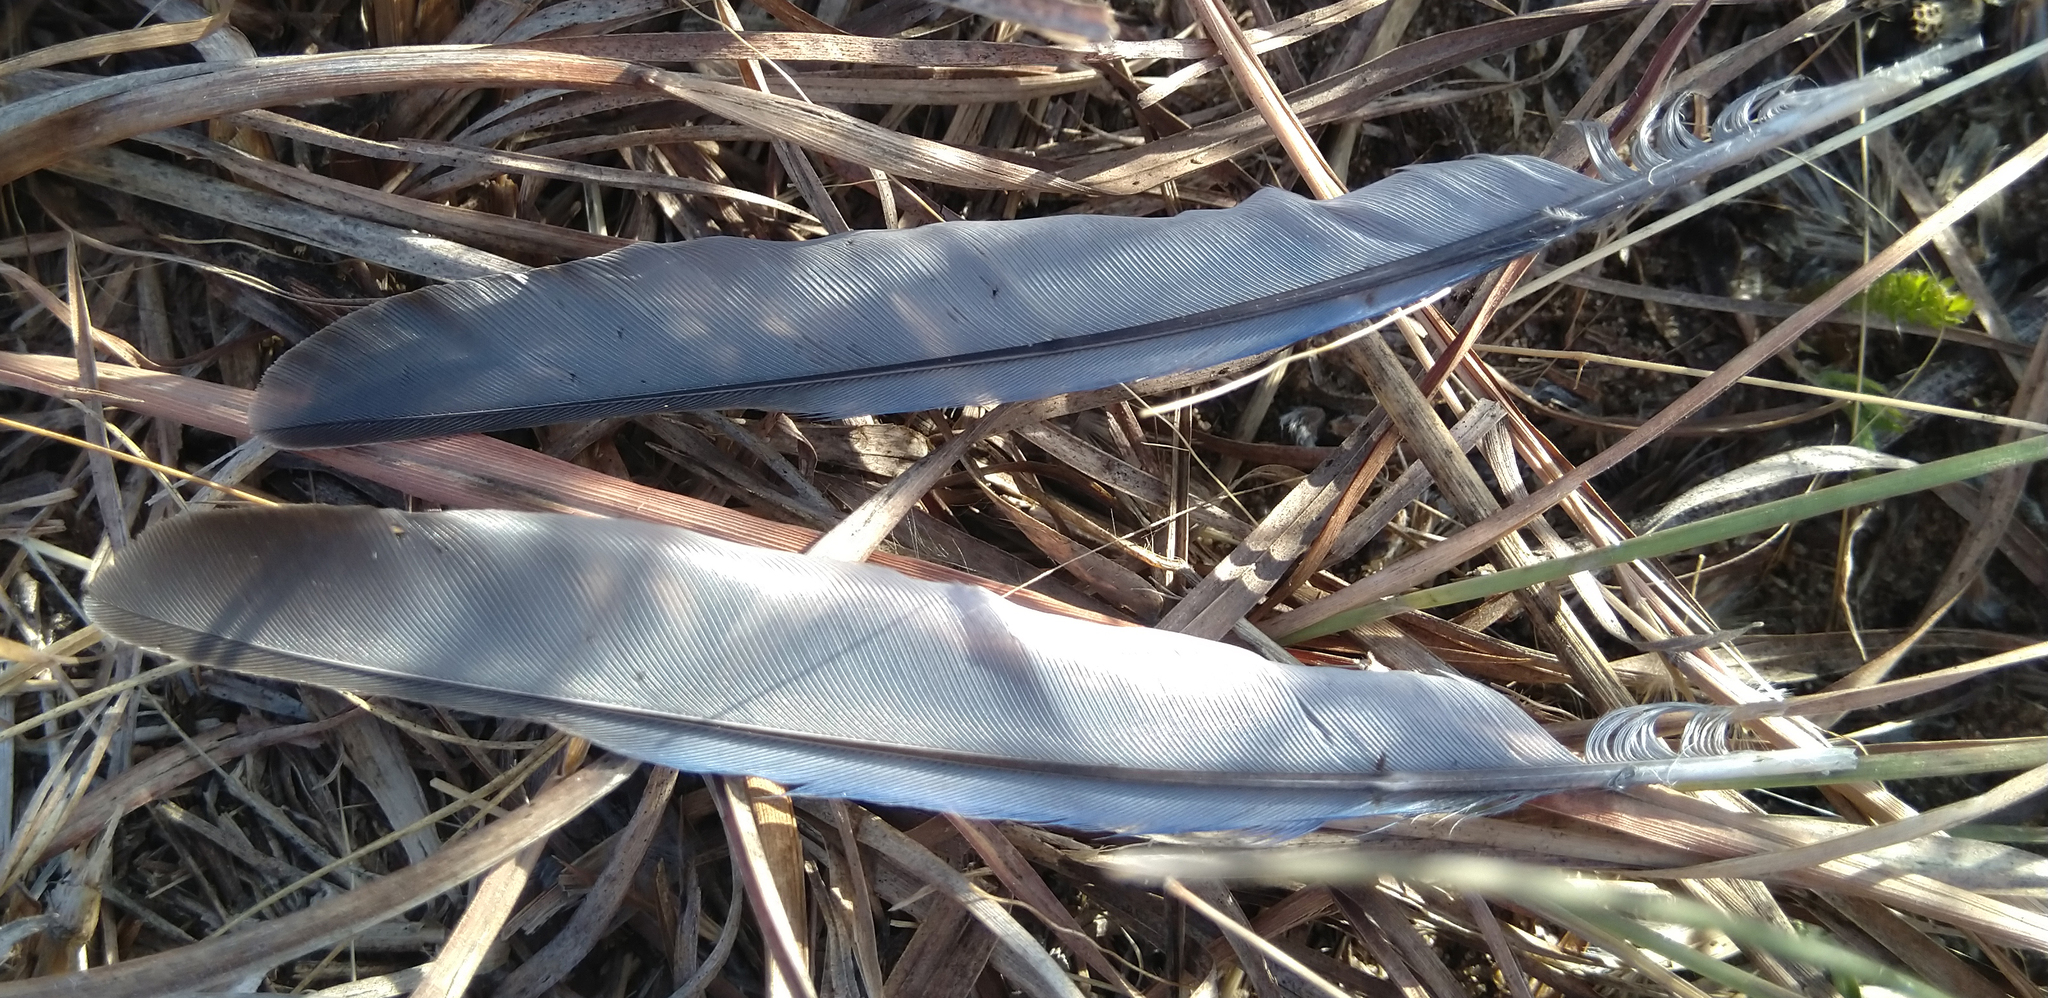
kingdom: Animalia
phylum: Chordata
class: Aves
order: Passeriformes
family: Turdidae
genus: Sialia
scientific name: Sialia sialis
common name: Eastern bluebird
